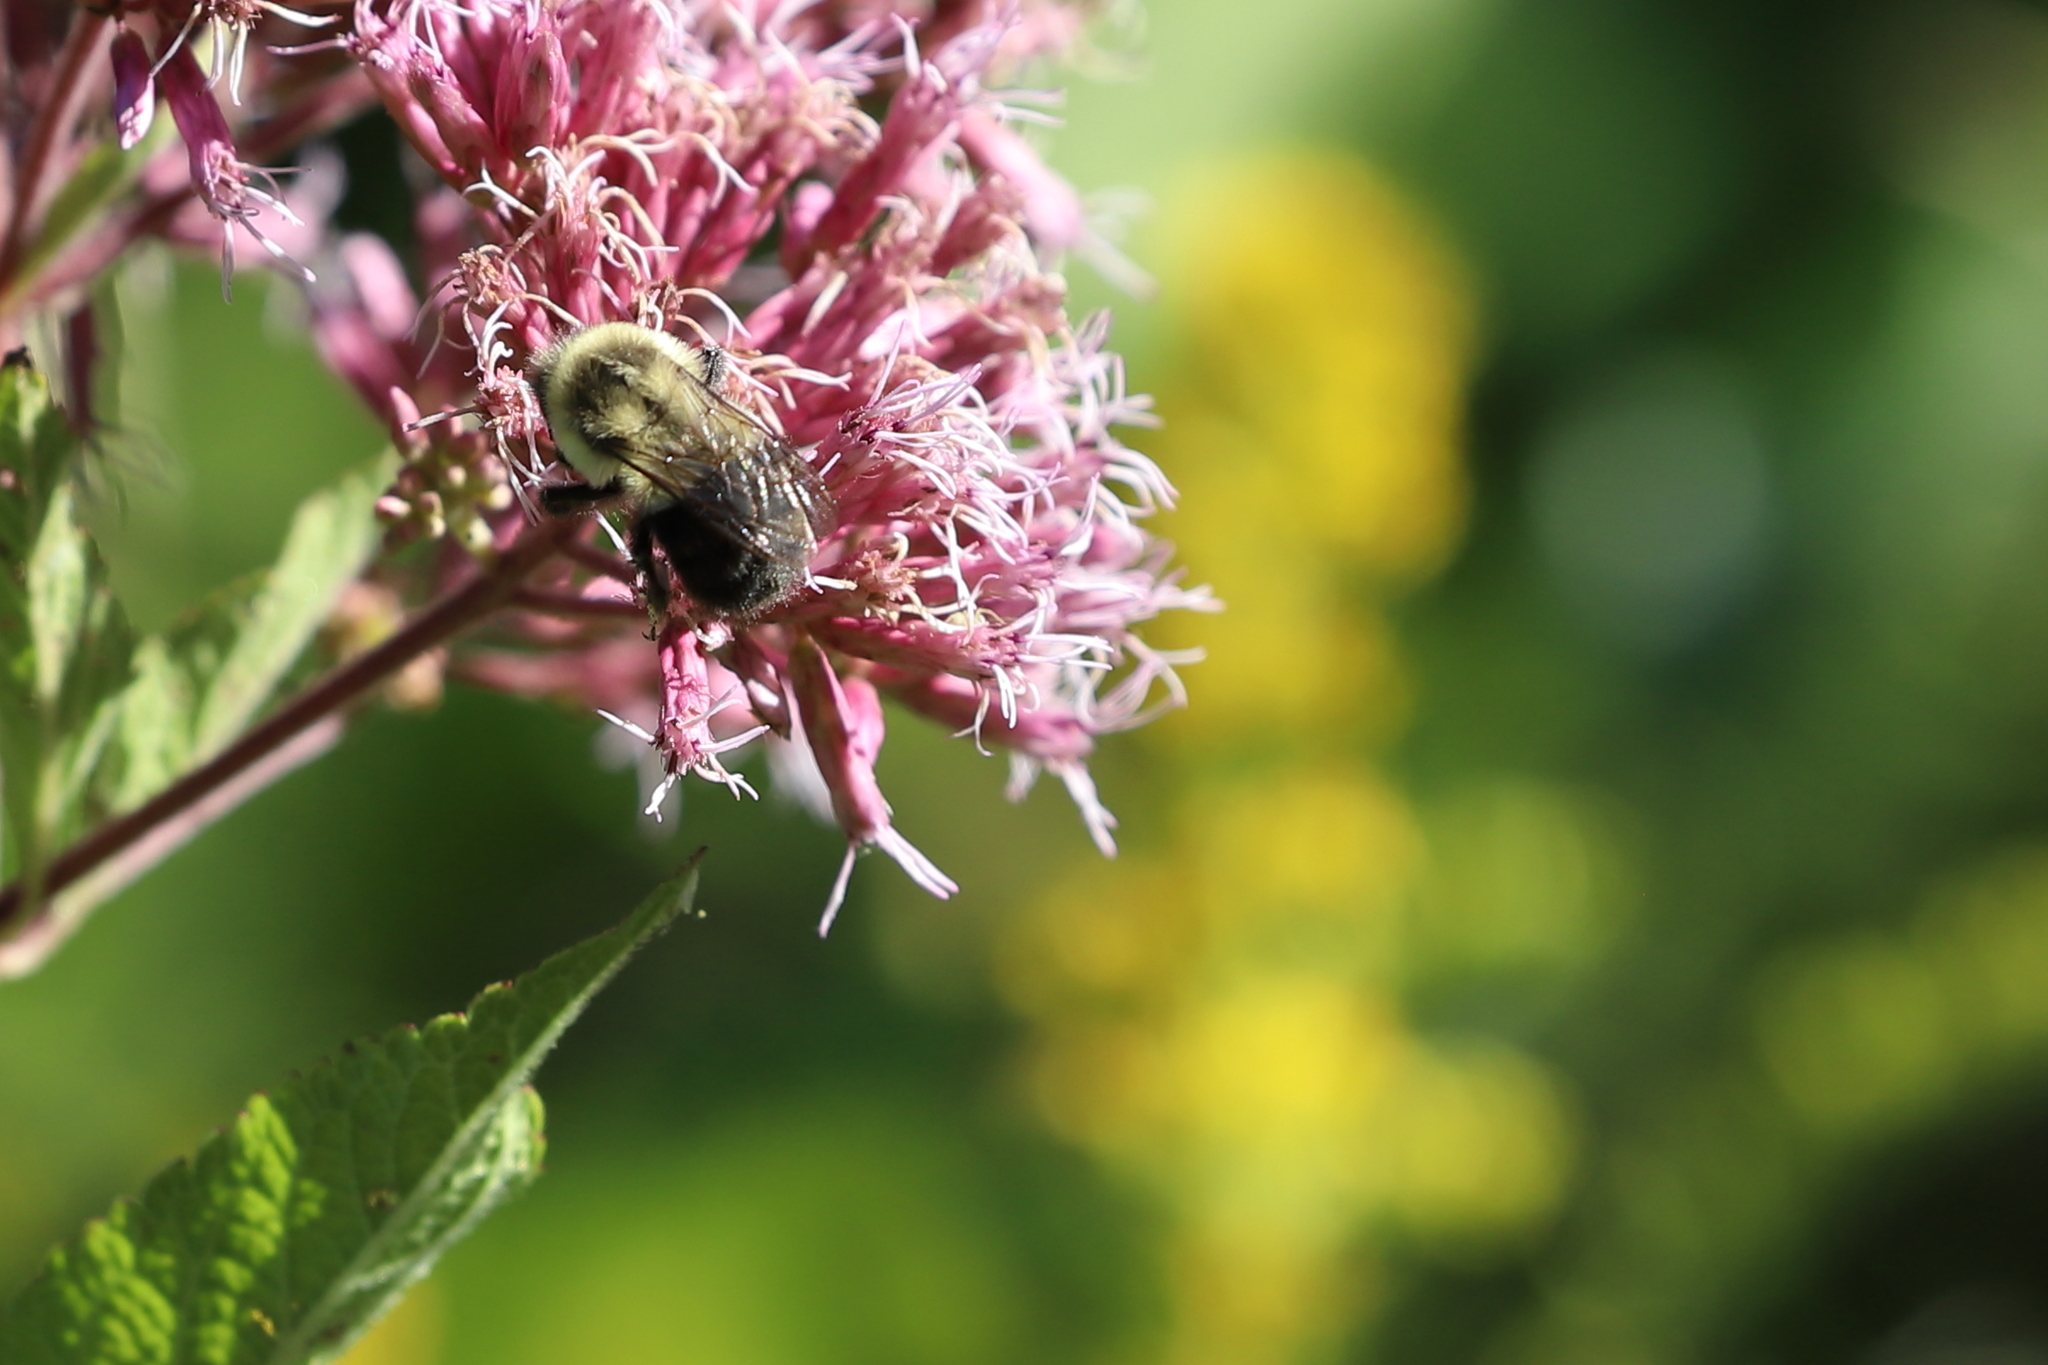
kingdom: Animalia
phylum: Arthropoda
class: Insecta
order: Hymenoptera
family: Apidae
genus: Bombus
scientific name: Bombus impatiens
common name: Common eastern bumble bee
